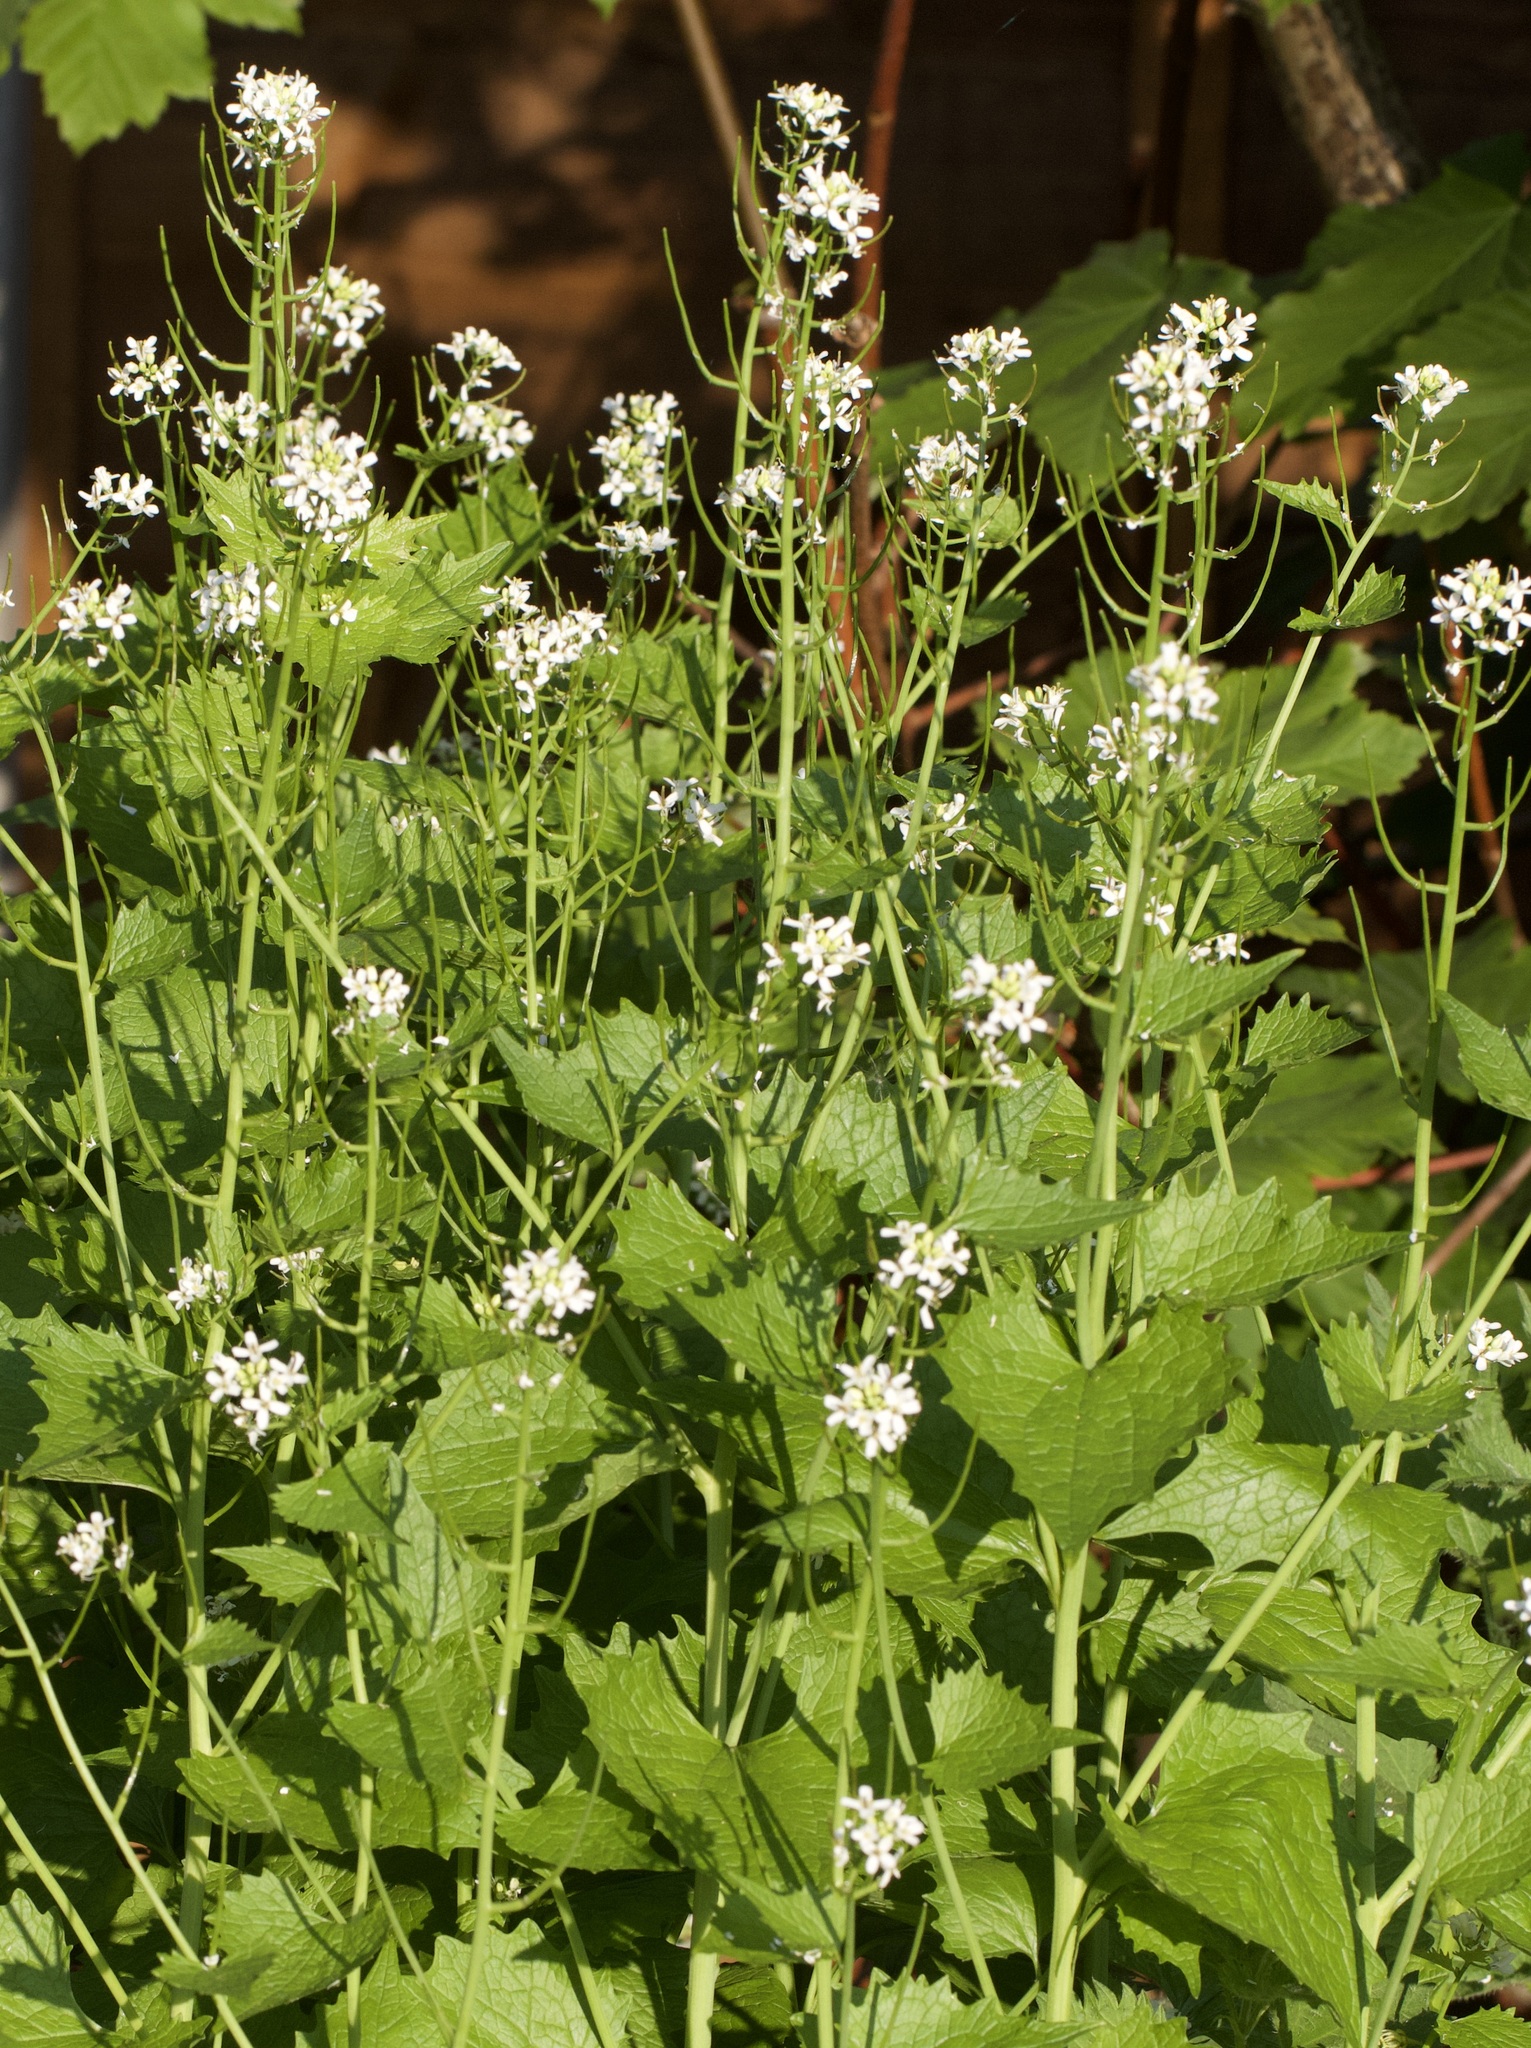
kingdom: Plantae
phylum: Tracheophyta
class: Magnoliopsida
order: Brassicales
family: Brassicaceae
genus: Alliaria
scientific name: Alliaria petiolata
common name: Garlic mustard
